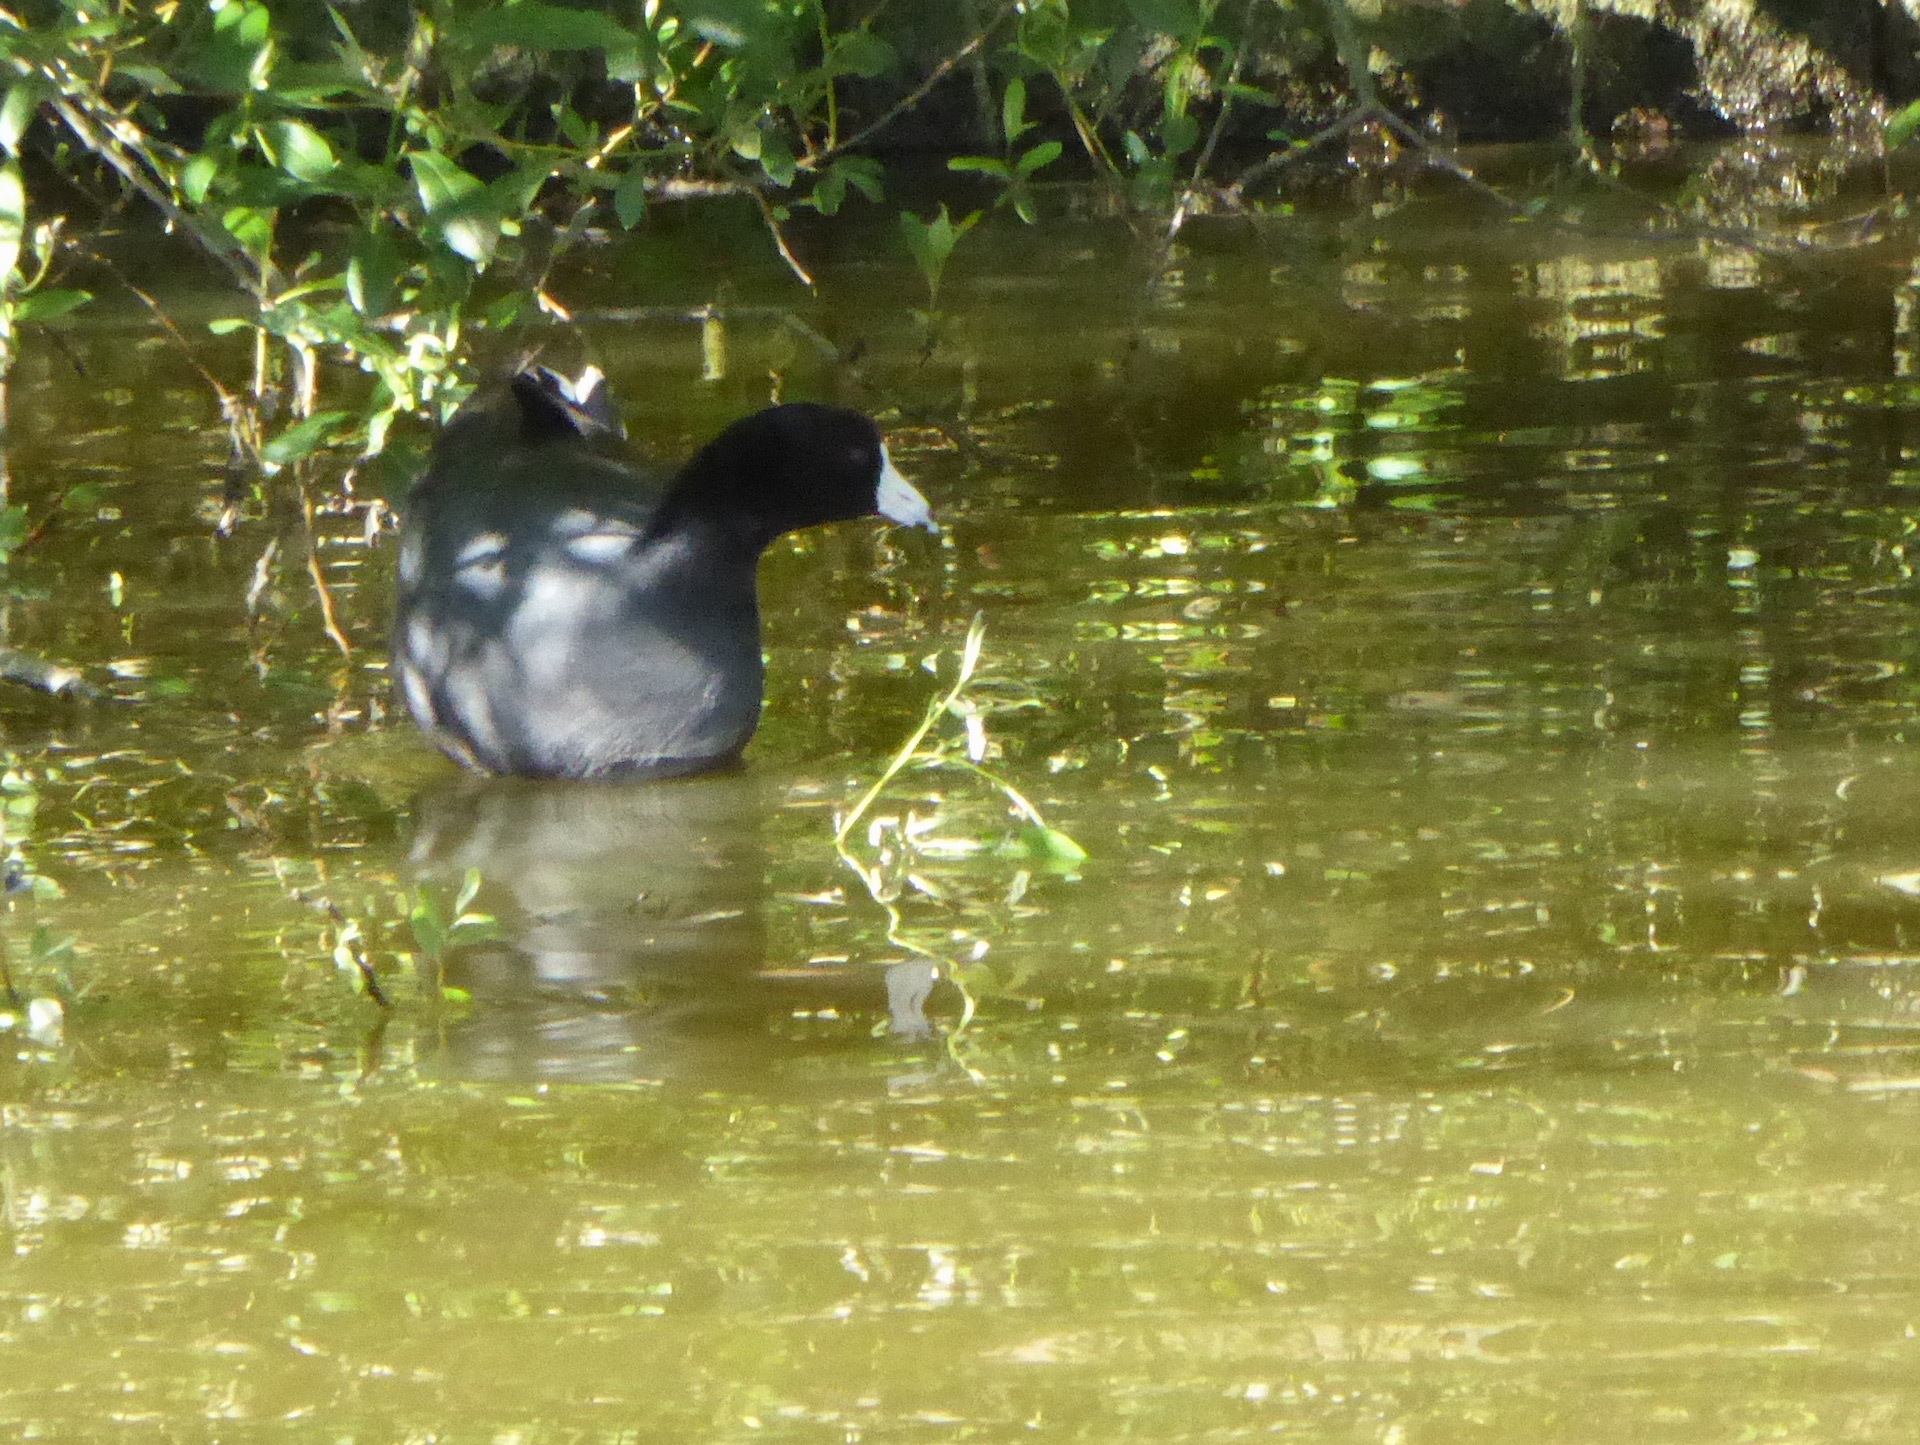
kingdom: Animalia
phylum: Chordata
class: Aves
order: Gruiformes
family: Rallidae
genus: Fulica
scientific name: Fulica americana
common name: American coot
